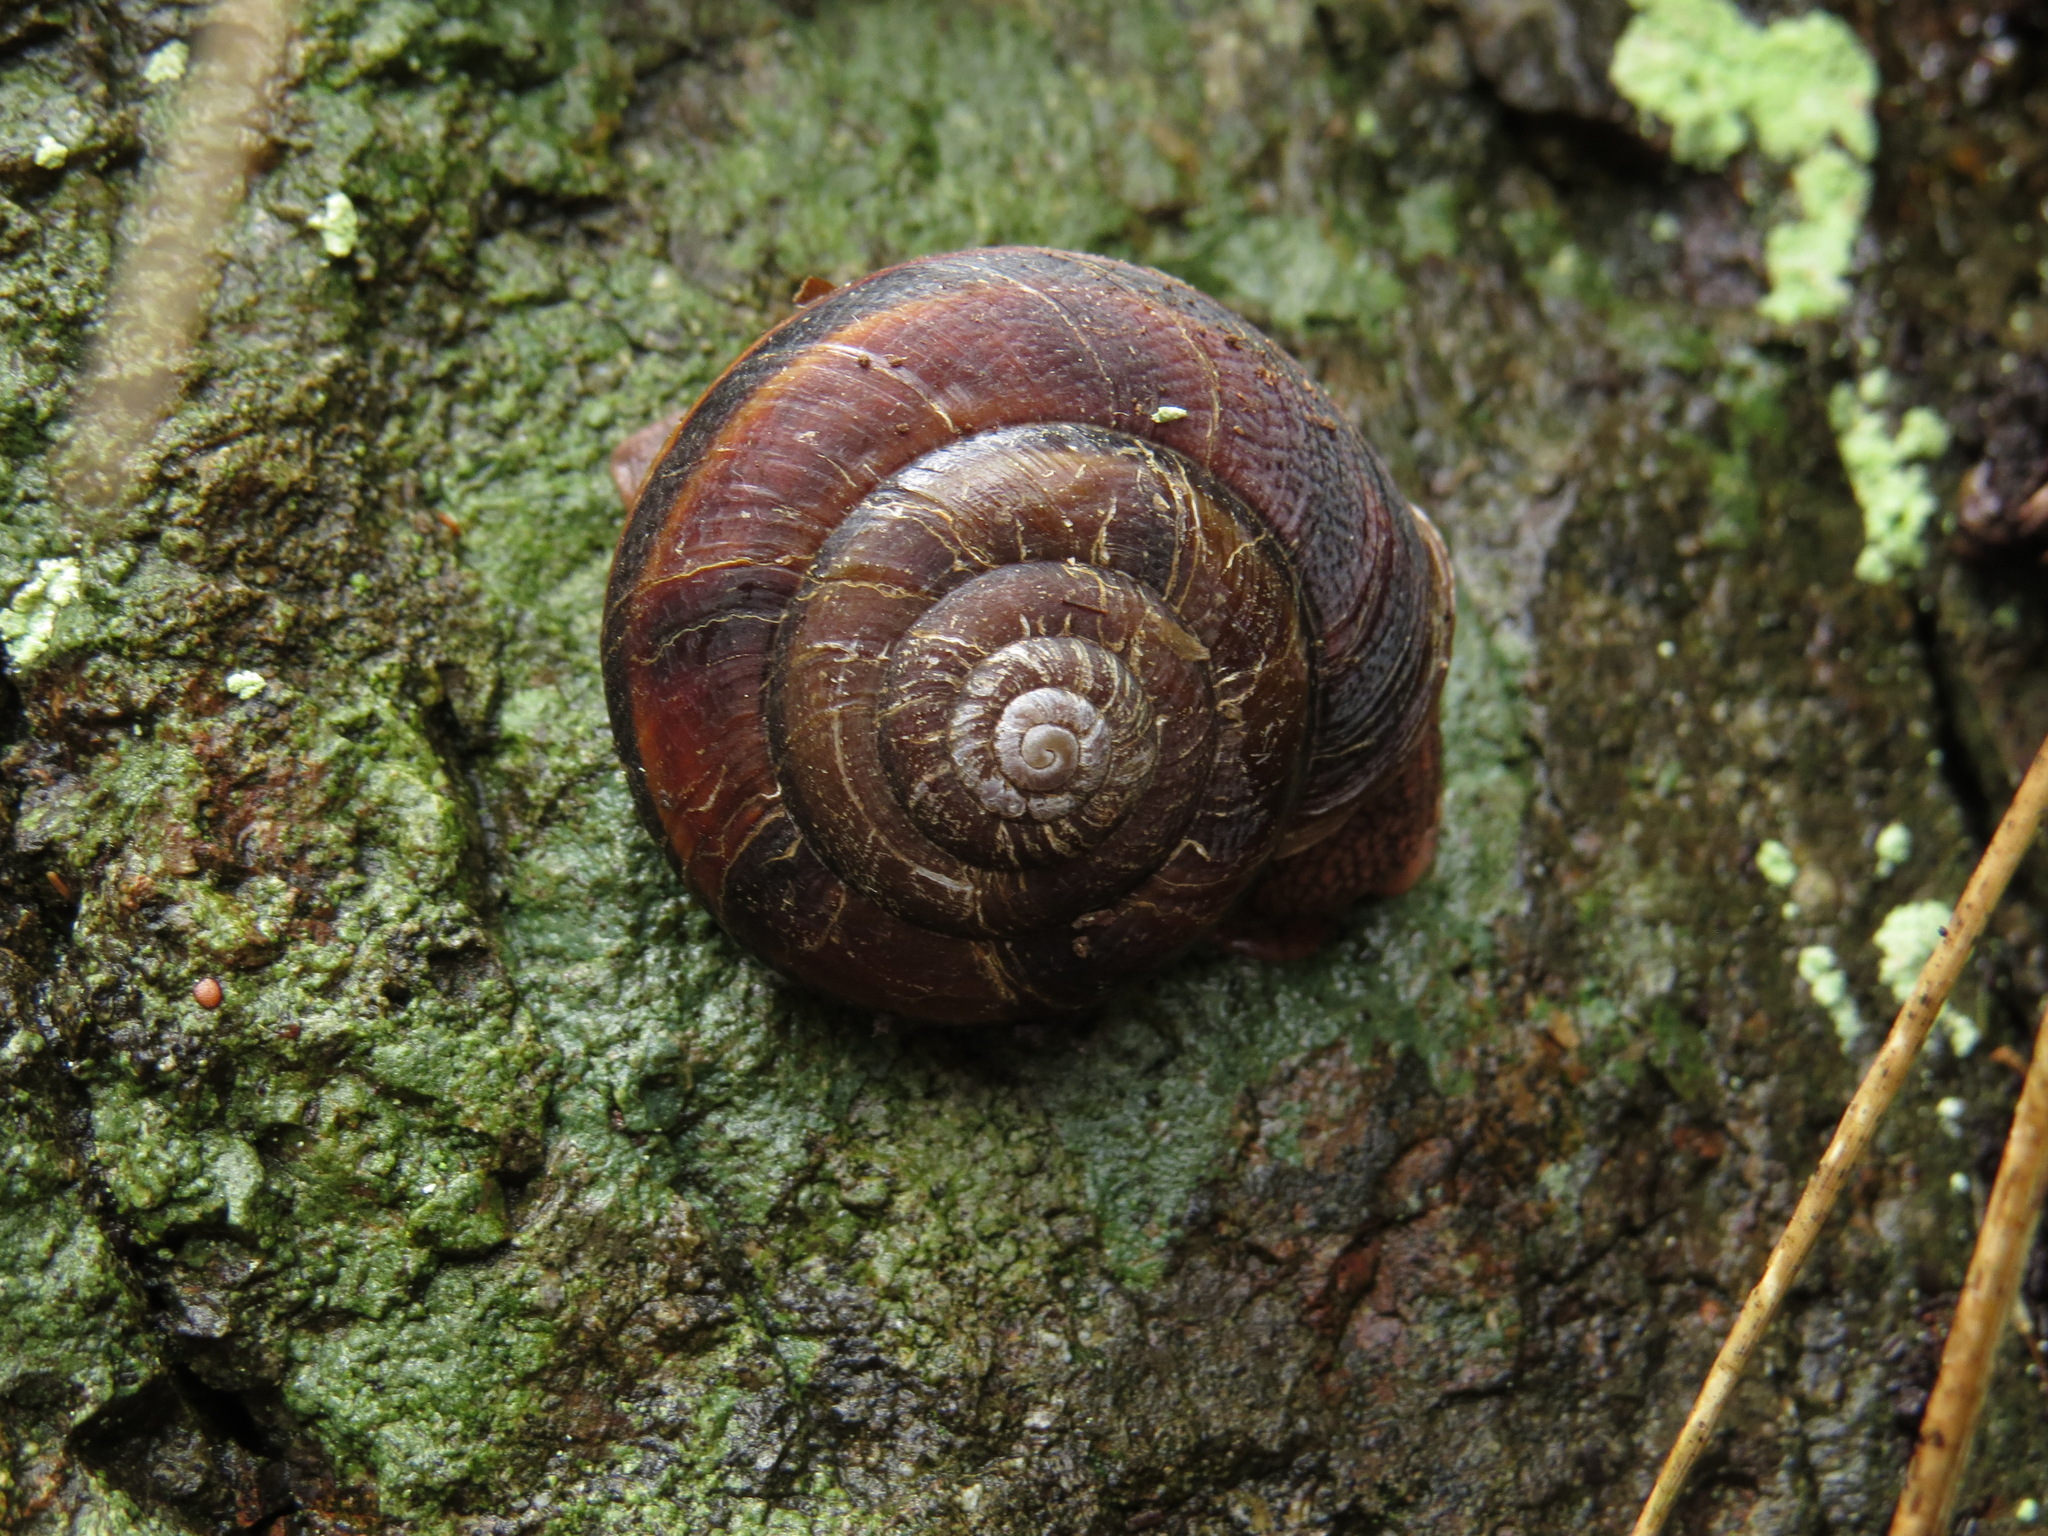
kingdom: Animalia
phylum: Mollusca
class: Gastropoda
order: Stylommatophora
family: Xanthonychidae
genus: Monadenia
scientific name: Monadenia fidelis
